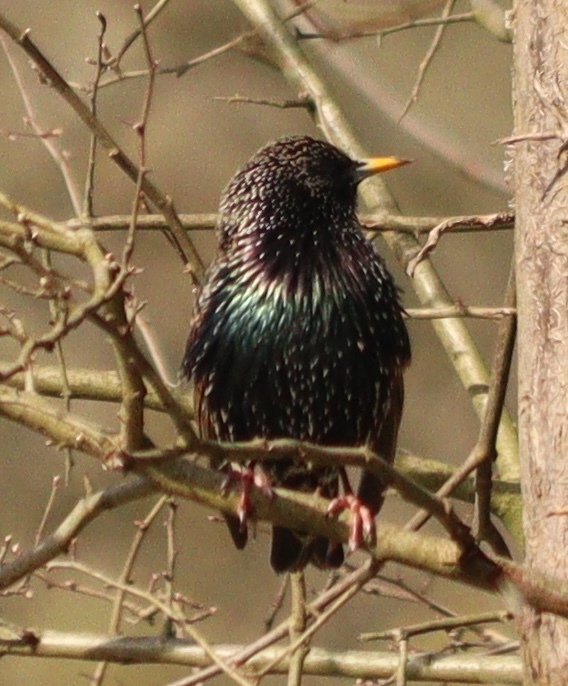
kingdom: Animalia
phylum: Chordata
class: Aves
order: Passeriformes
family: Sturnidae
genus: Sturnus
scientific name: Sturnus vulgaris
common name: Common starling
